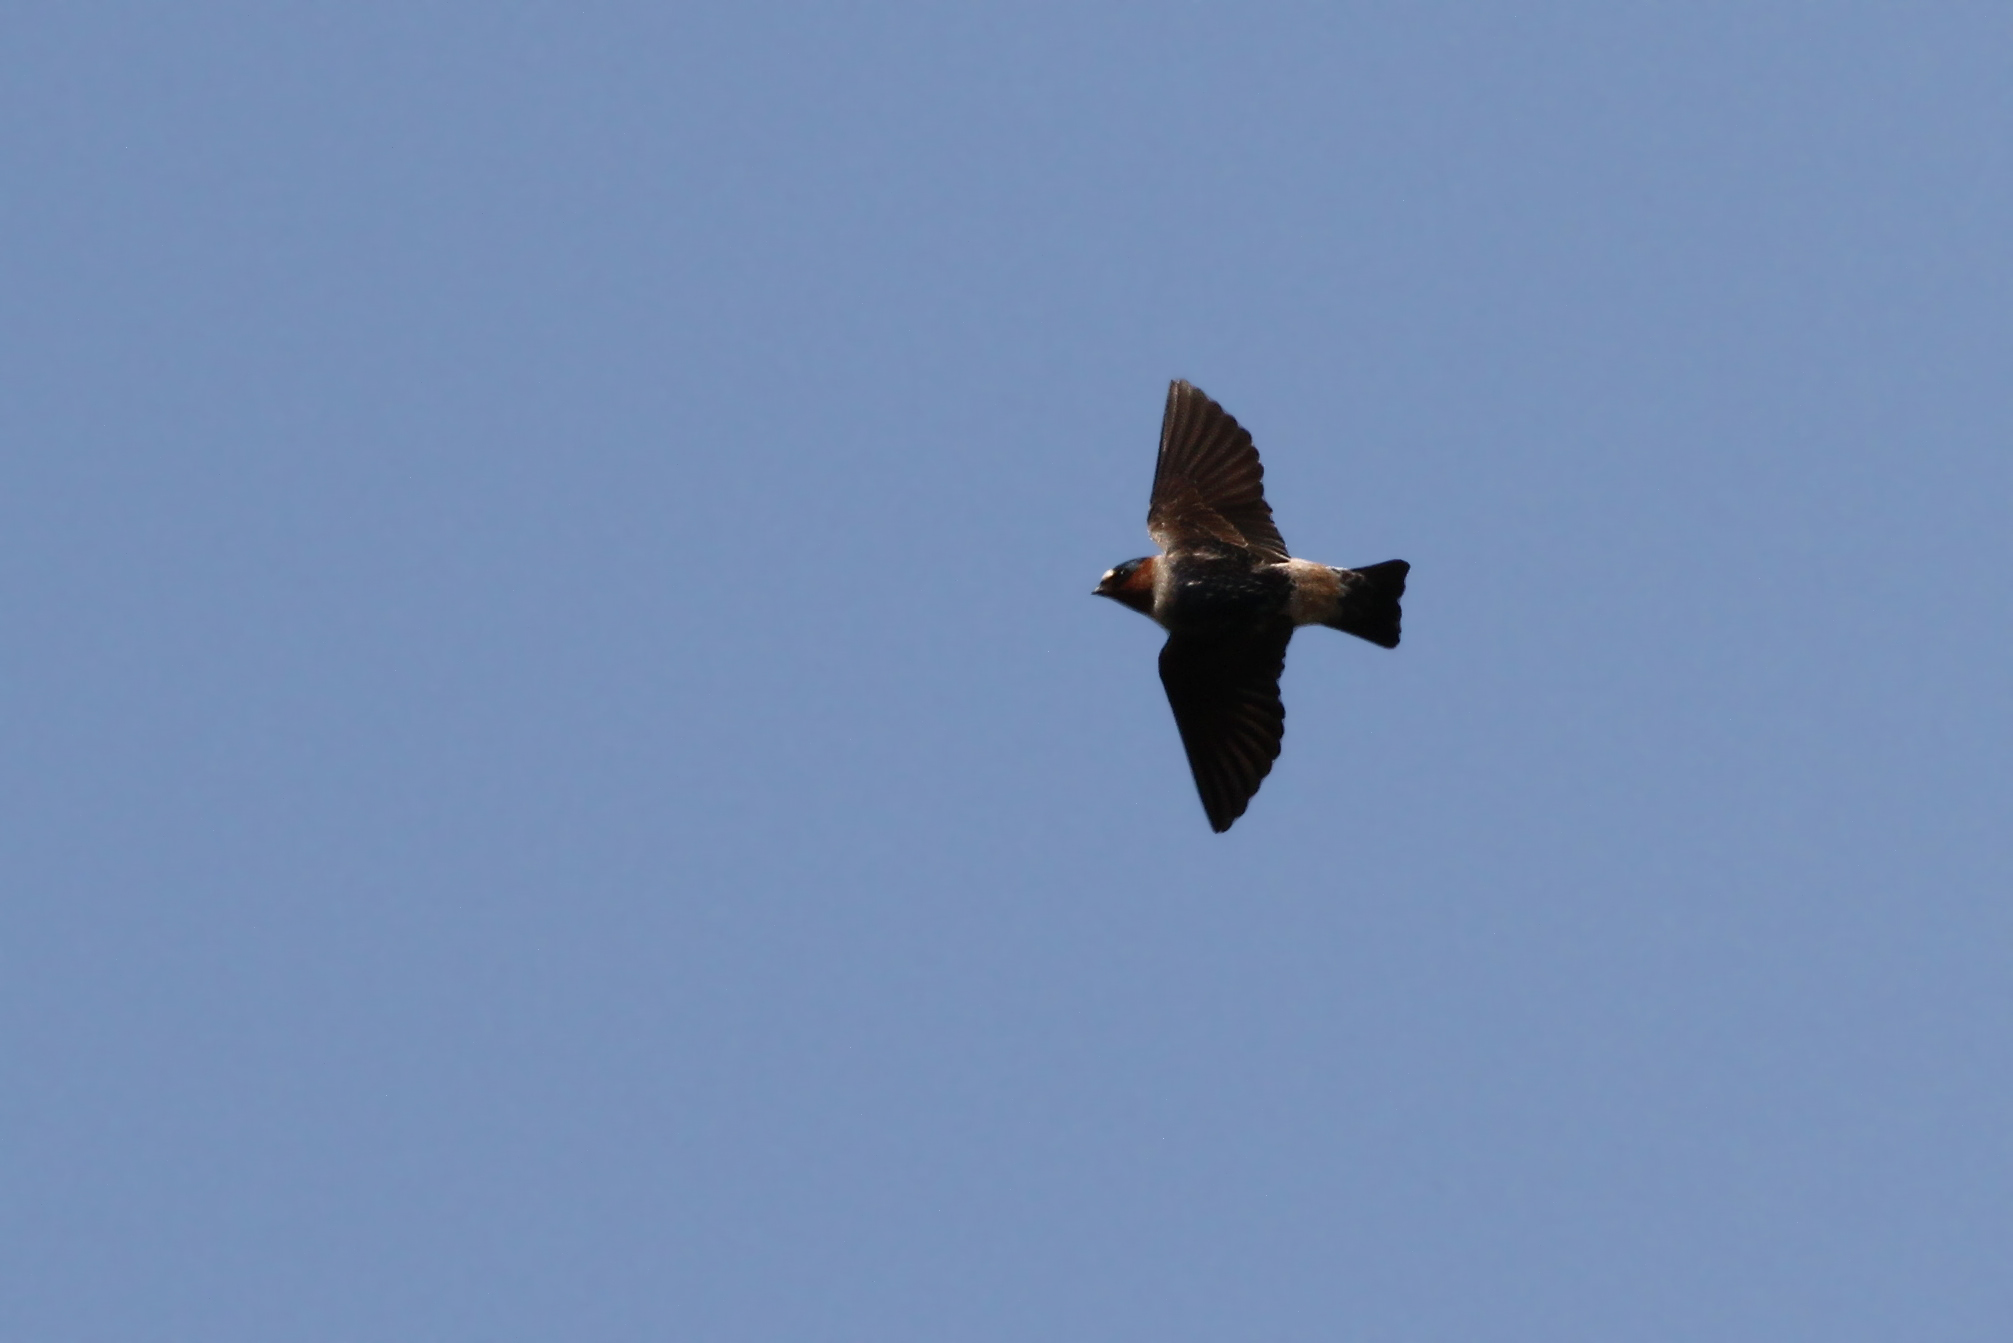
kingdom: Animalia
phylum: Chordata
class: Aves
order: Passeriformes
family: Hirundinidae
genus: Petrochelidon
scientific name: Petrochelidon pyrrhonota
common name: American cliff swallow
